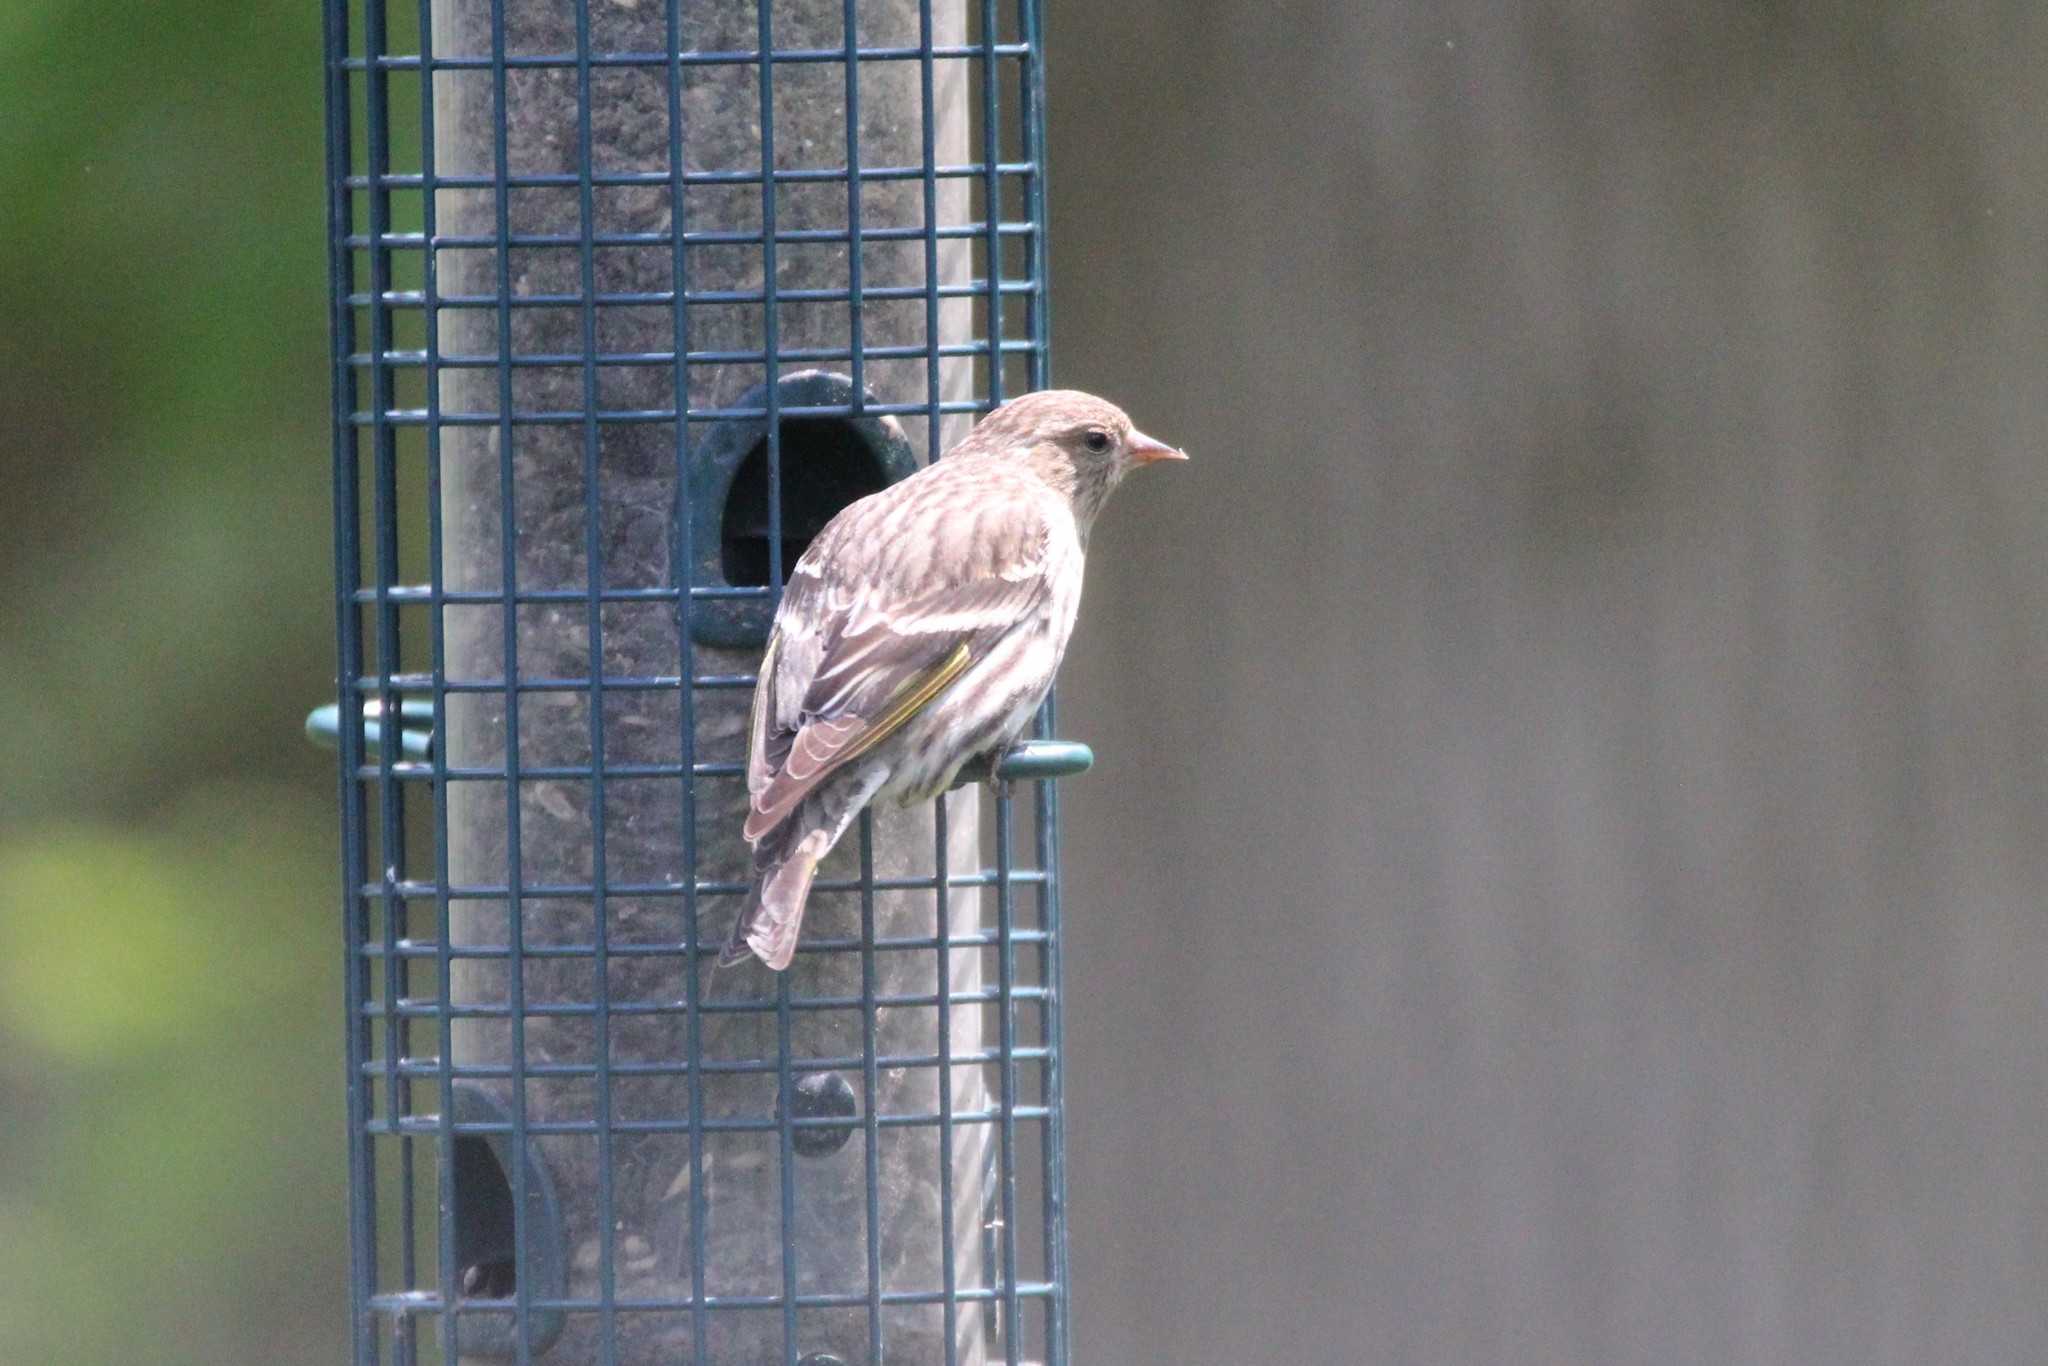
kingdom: Animalia
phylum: Chordata
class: Aves
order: Passeriformes
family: Fringillidae
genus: Spinus
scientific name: Spinus pinus
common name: Pine siskin
